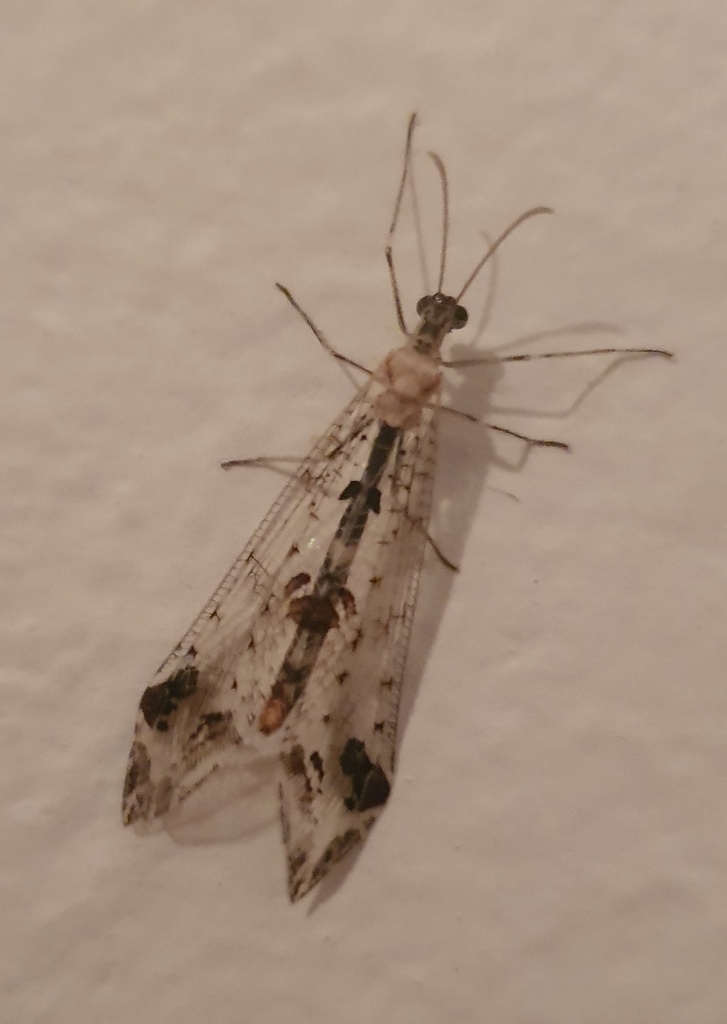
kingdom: Animalia
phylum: Arthropoda
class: Insecta
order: Neuroptera
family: Myrmeleontidae
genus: Bankisus
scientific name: Bankisus oculatus
